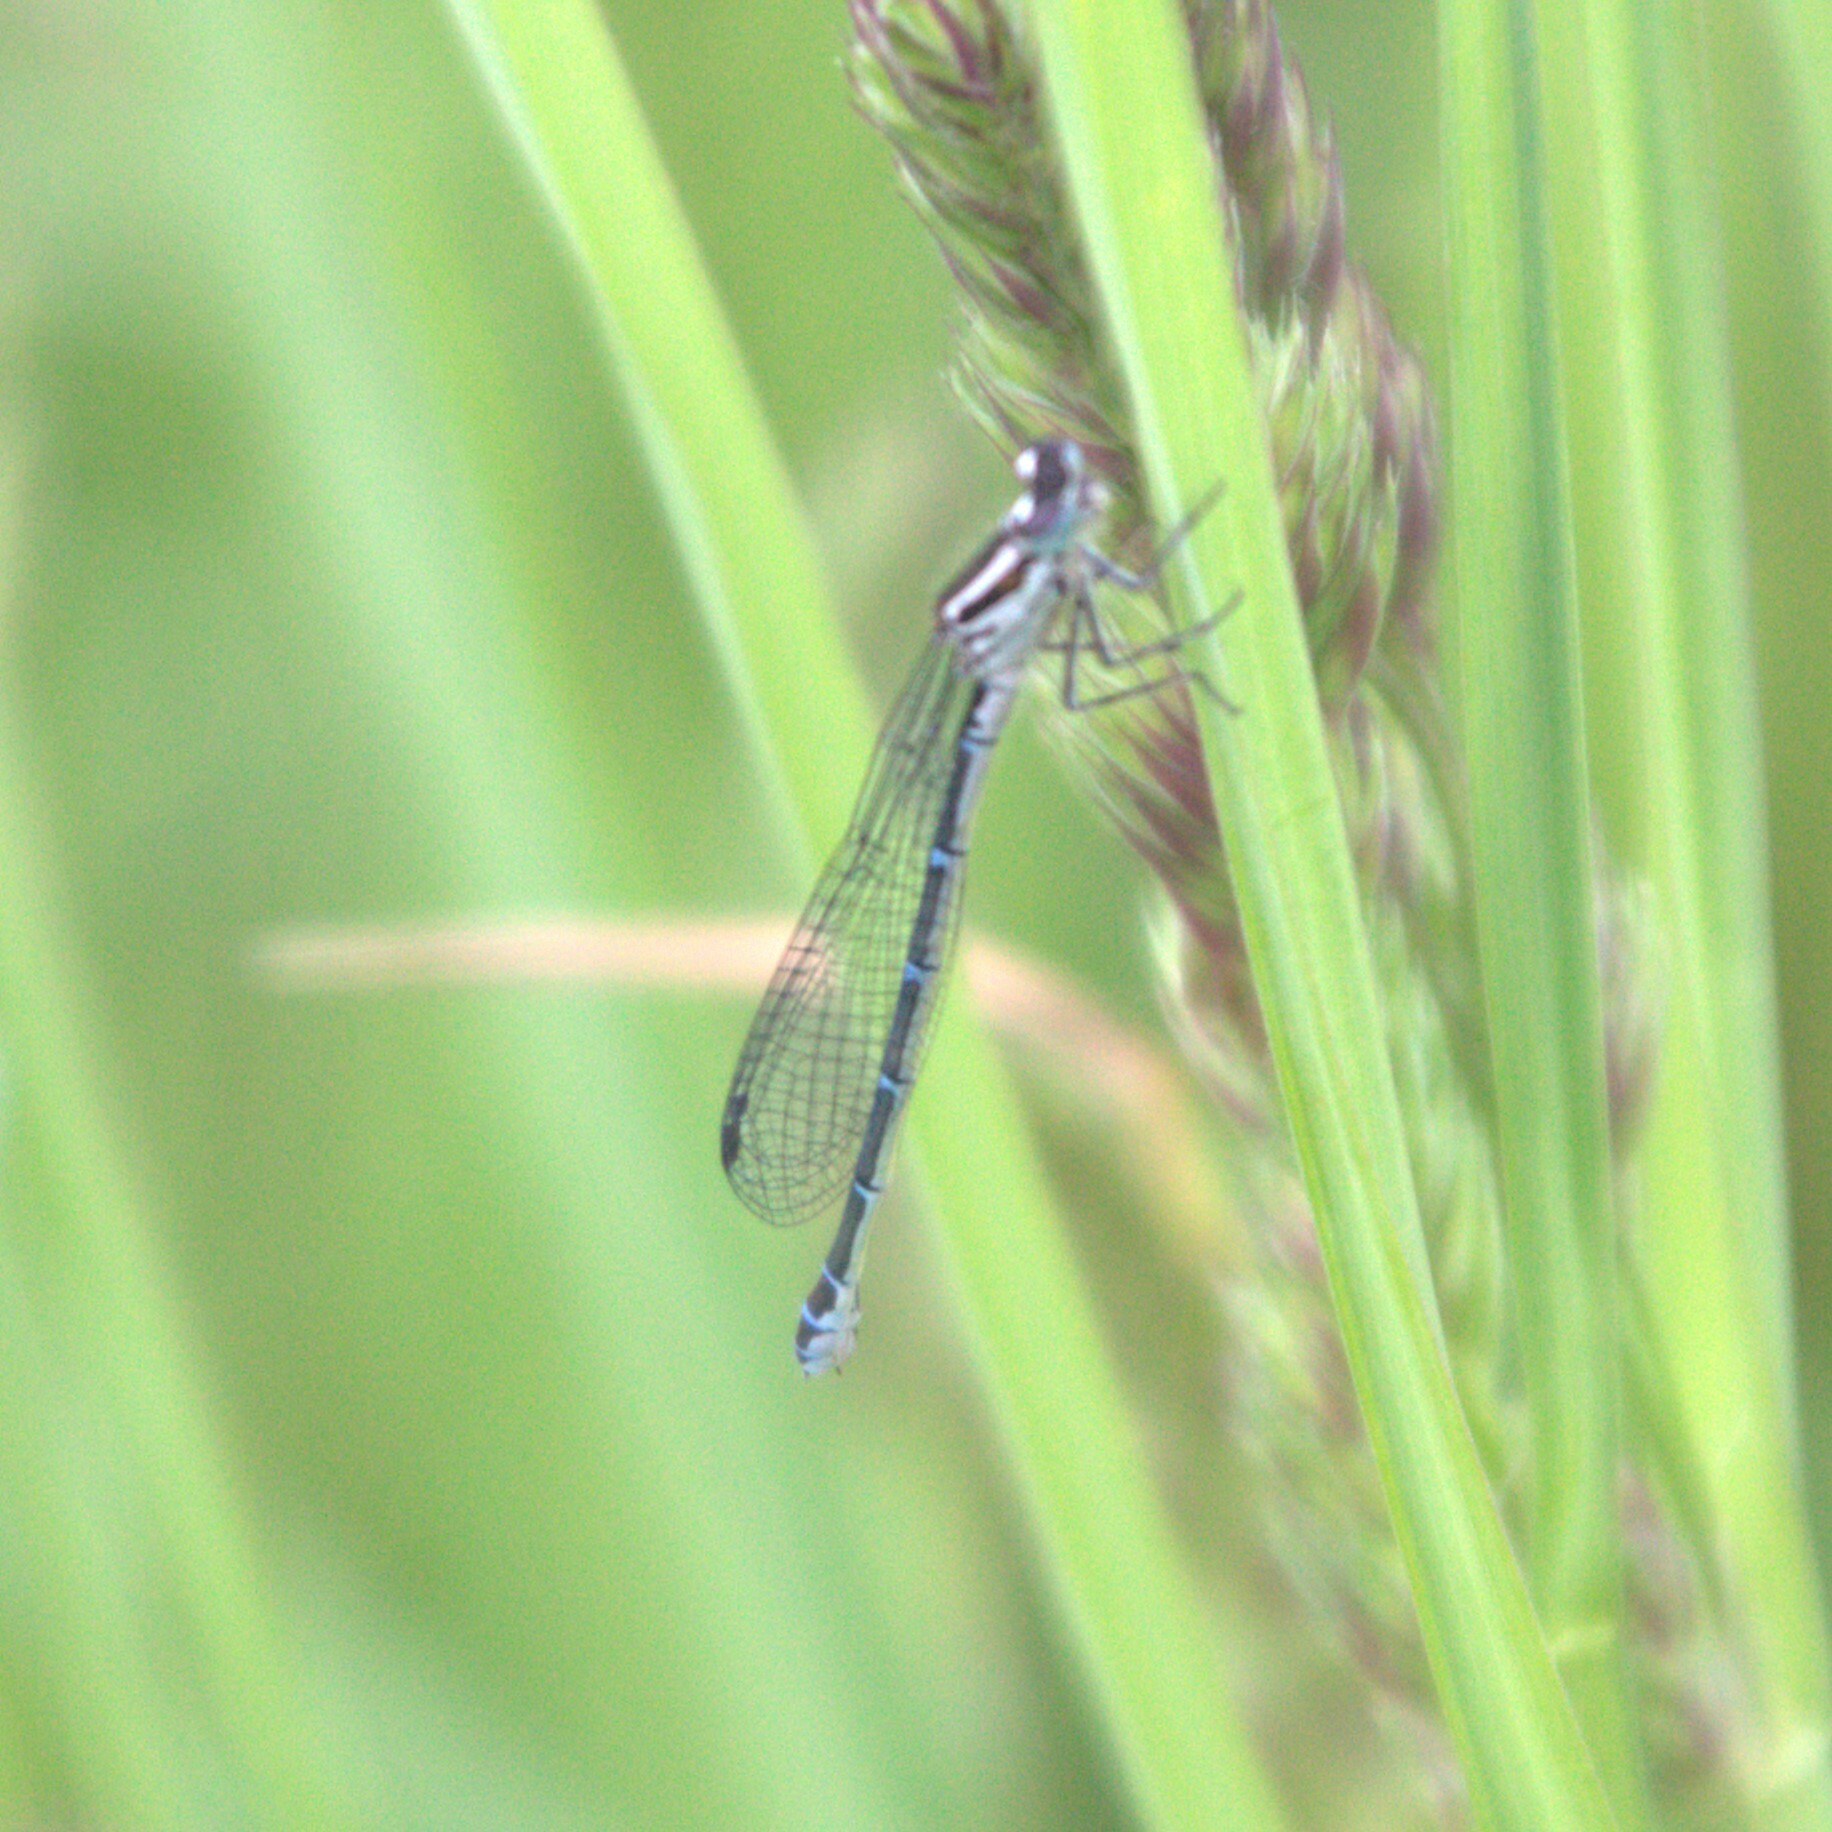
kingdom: Animalia
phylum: Arthropoda
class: Insecta
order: Odonata
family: Coenagrionidae
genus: Coenagrion
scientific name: Coenagrion puella
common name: Azure damselfly
